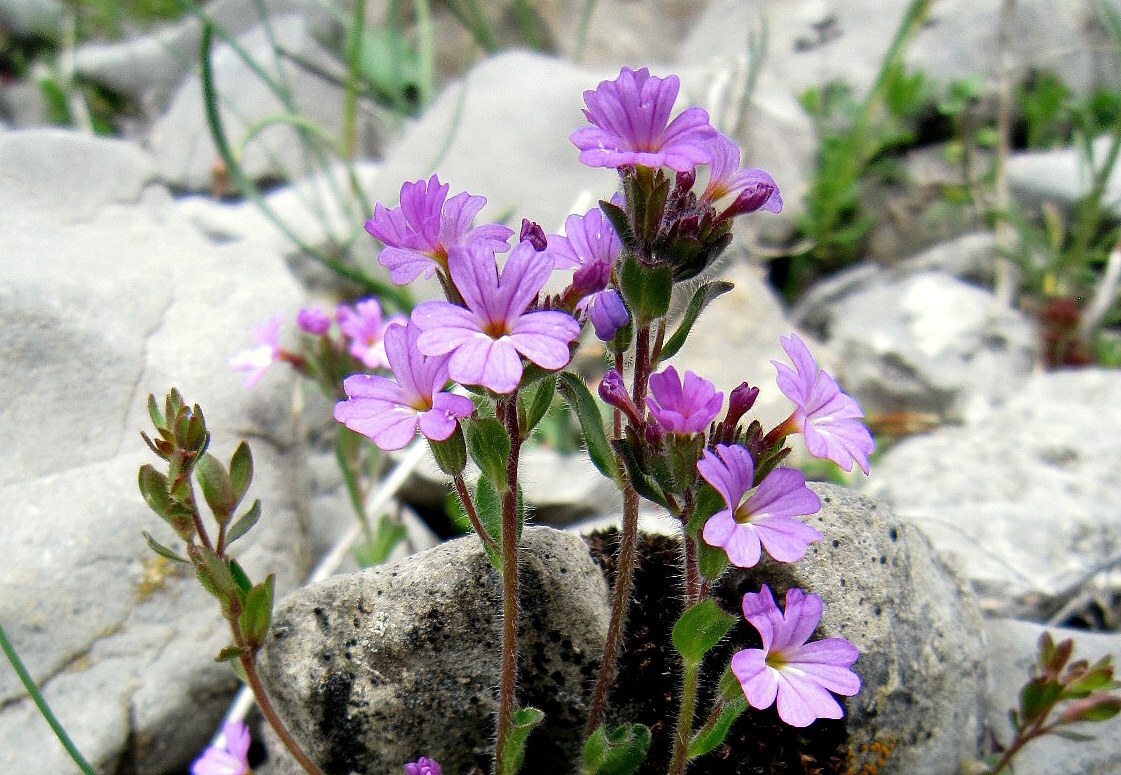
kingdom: Plantae
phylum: Tracheophyta
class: Magnoliopsida
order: Lamiales
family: Plantaginaceae
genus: Erinus
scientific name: Erinus alpinus
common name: Fairy foxglove
